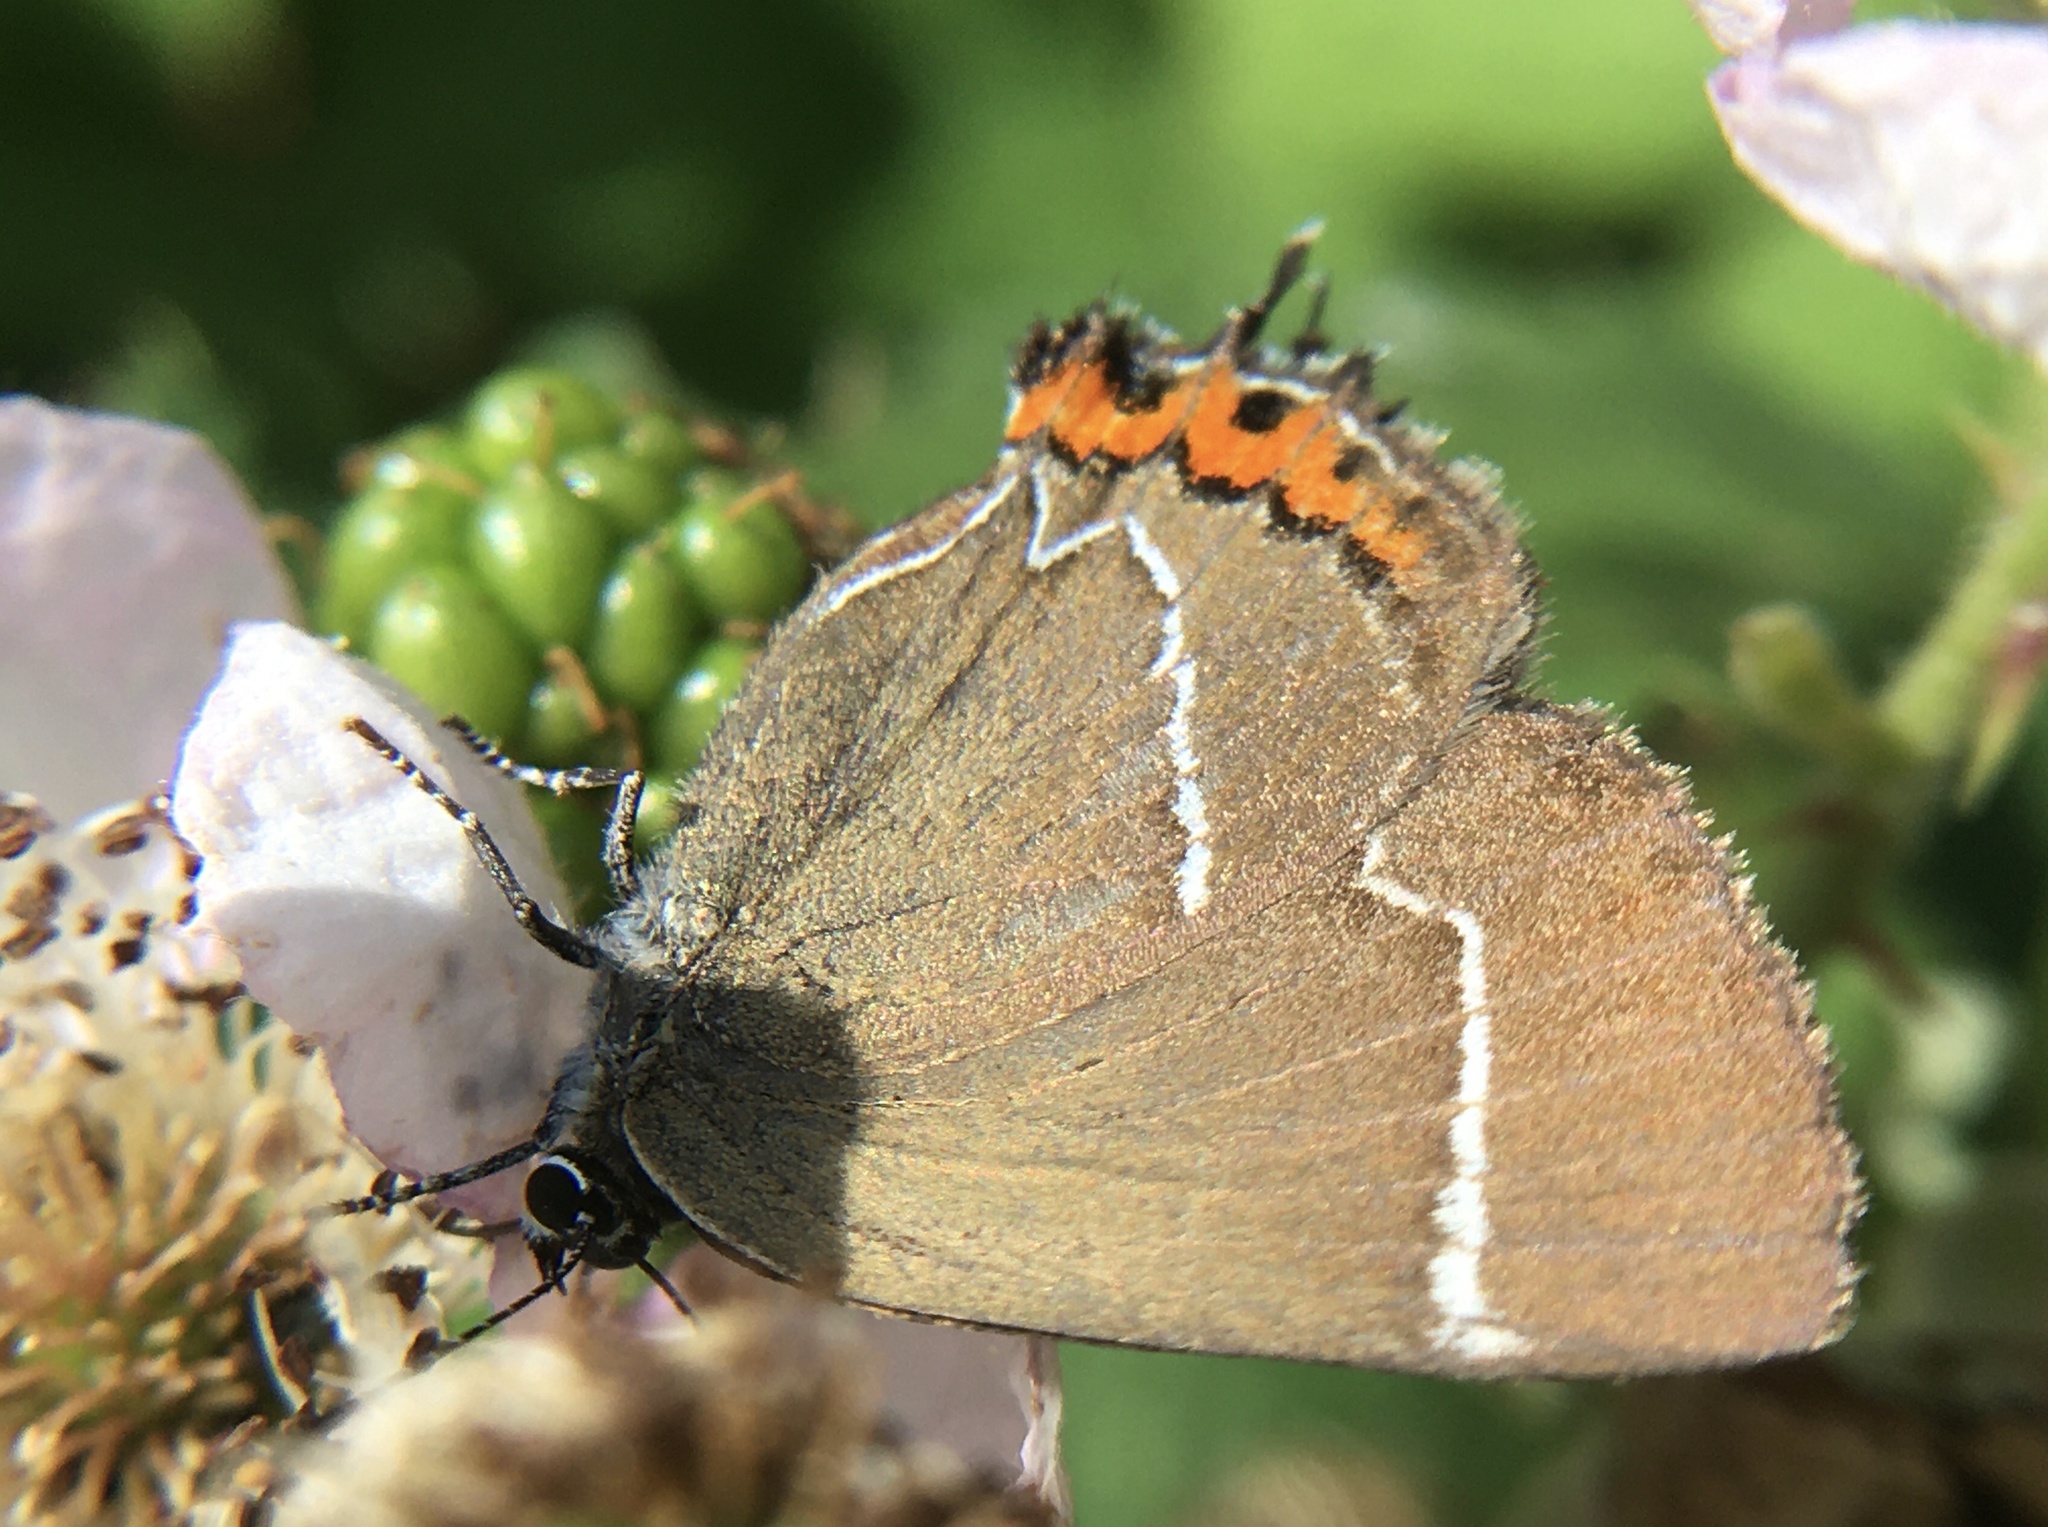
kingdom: Animalia
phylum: Arthropoda
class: Insecta
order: Lepidoptera
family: Lycaenidae
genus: Satyrium
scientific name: Satyrium w-album
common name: White-letter hairstreak
